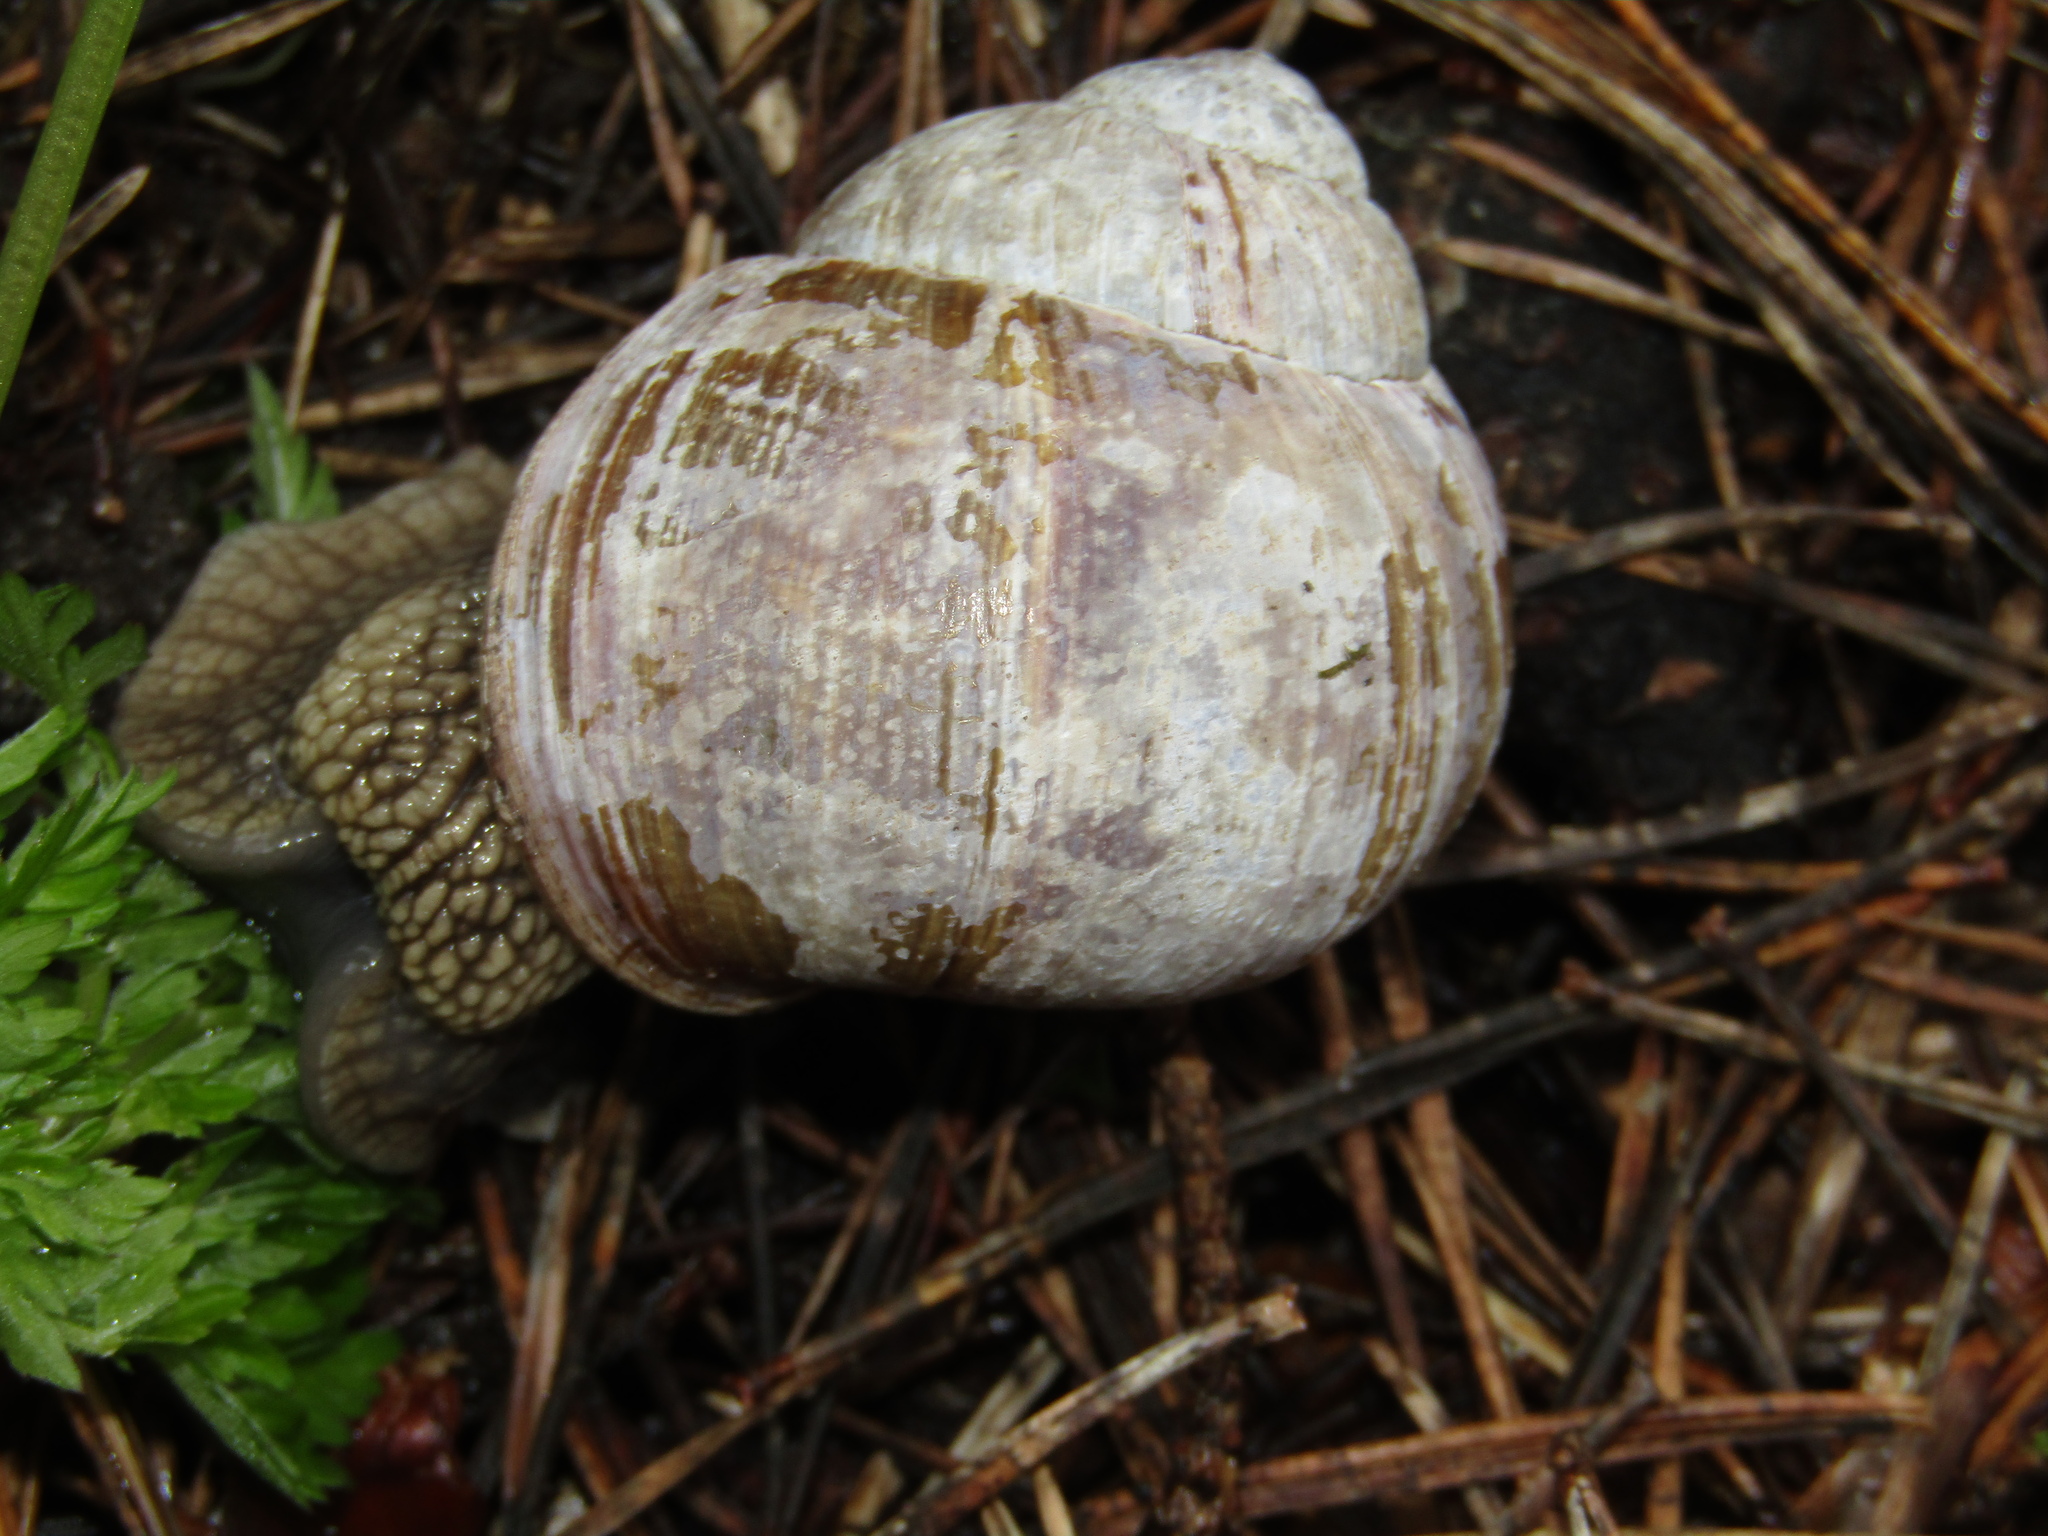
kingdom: Animalia
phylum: Mollusca
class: Gastropoda
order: Stylommatophora
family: Helicidae
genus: Helix
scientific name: Helix pomatia
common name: Roman snail
